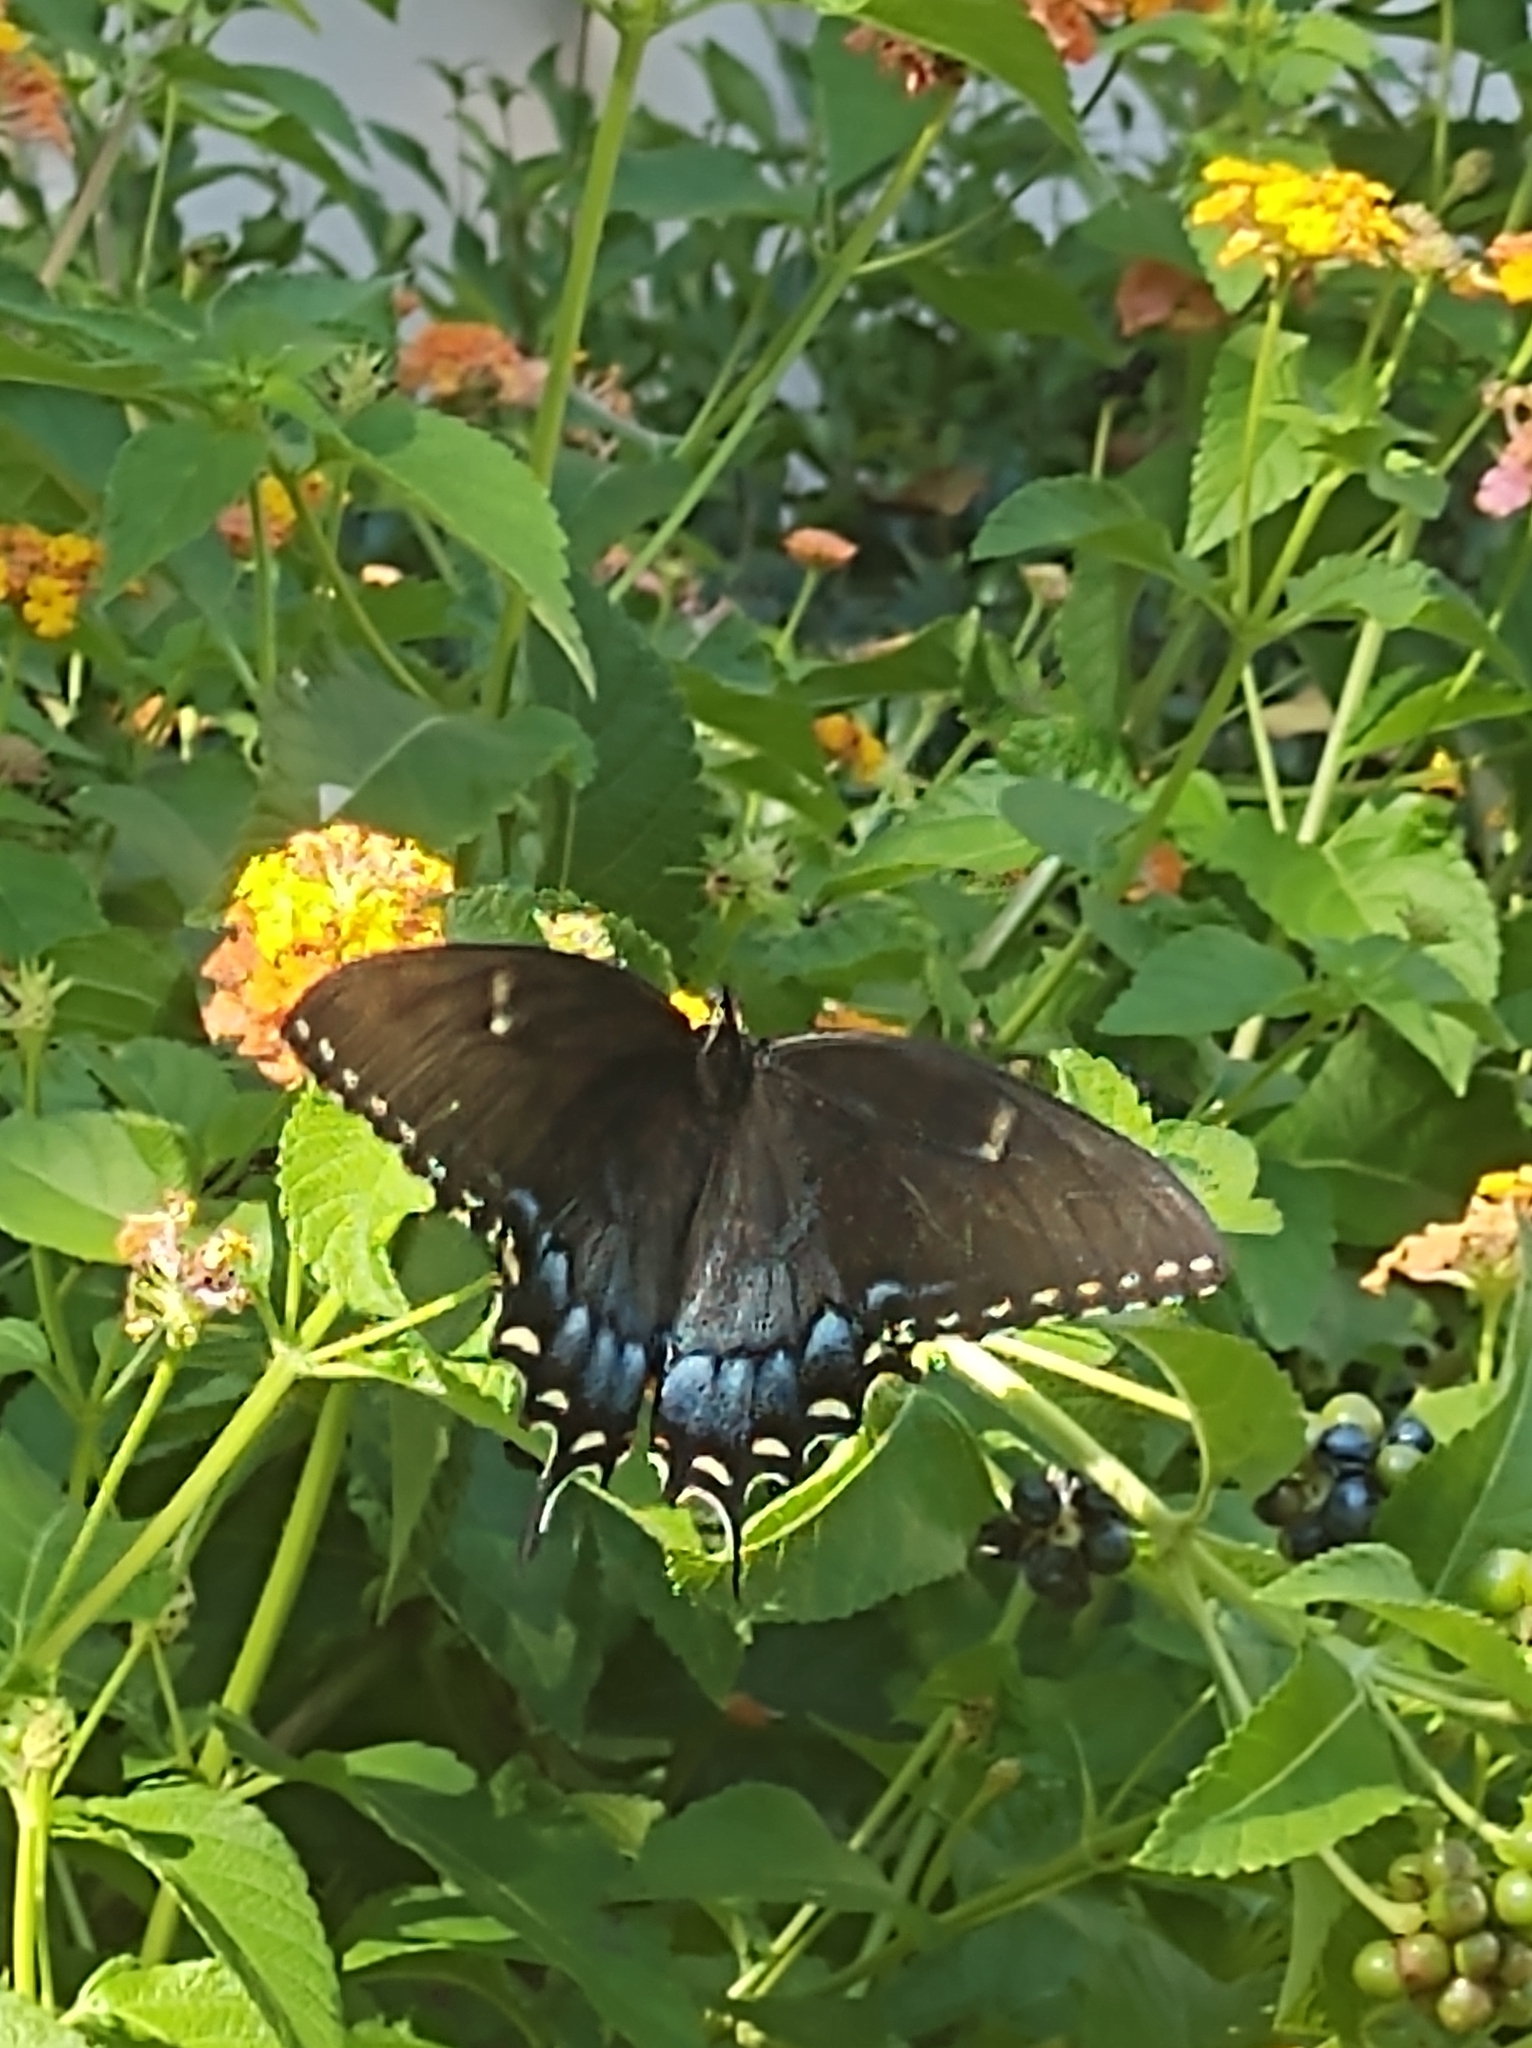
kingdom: Animalia
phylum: Arthropoda
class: Insecta
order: Lepidoptera
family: Papilionidae
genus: Papilio
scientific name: Papilio glaucus
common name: Tiger swallowtail
